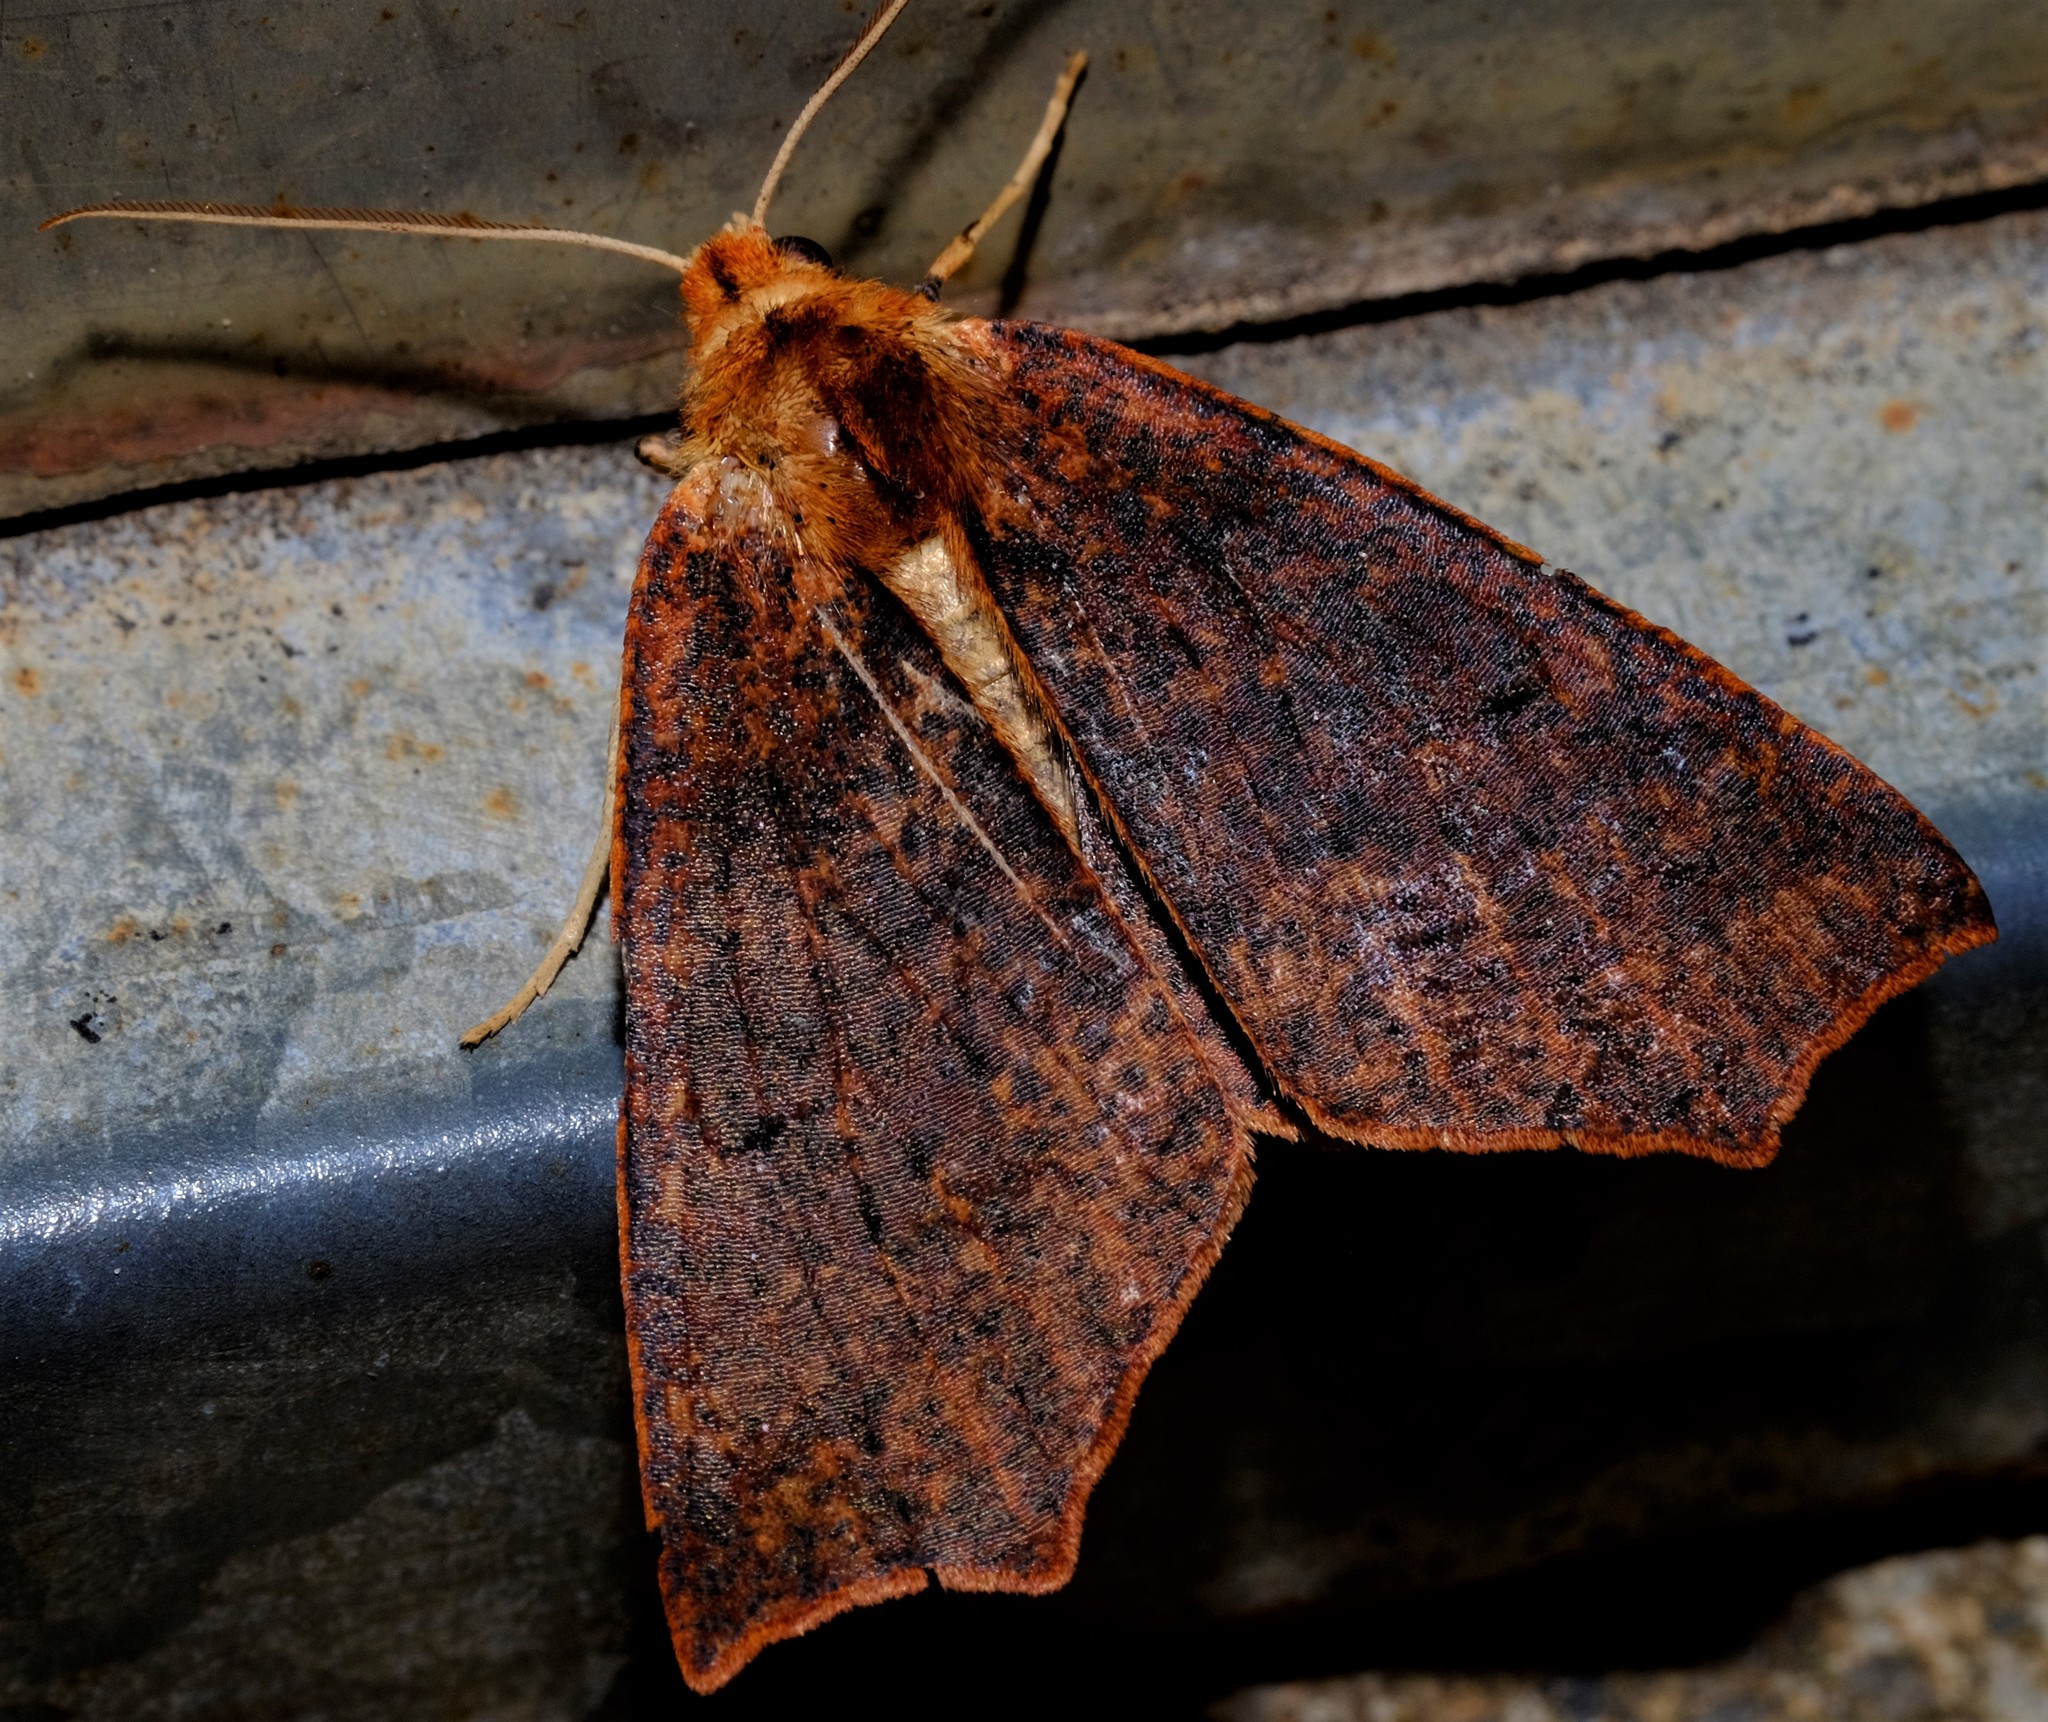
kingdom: Animalia
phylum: Arthropoda
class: Insecta
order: Lepidoptera
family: Geometridae
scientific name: Geometridae
